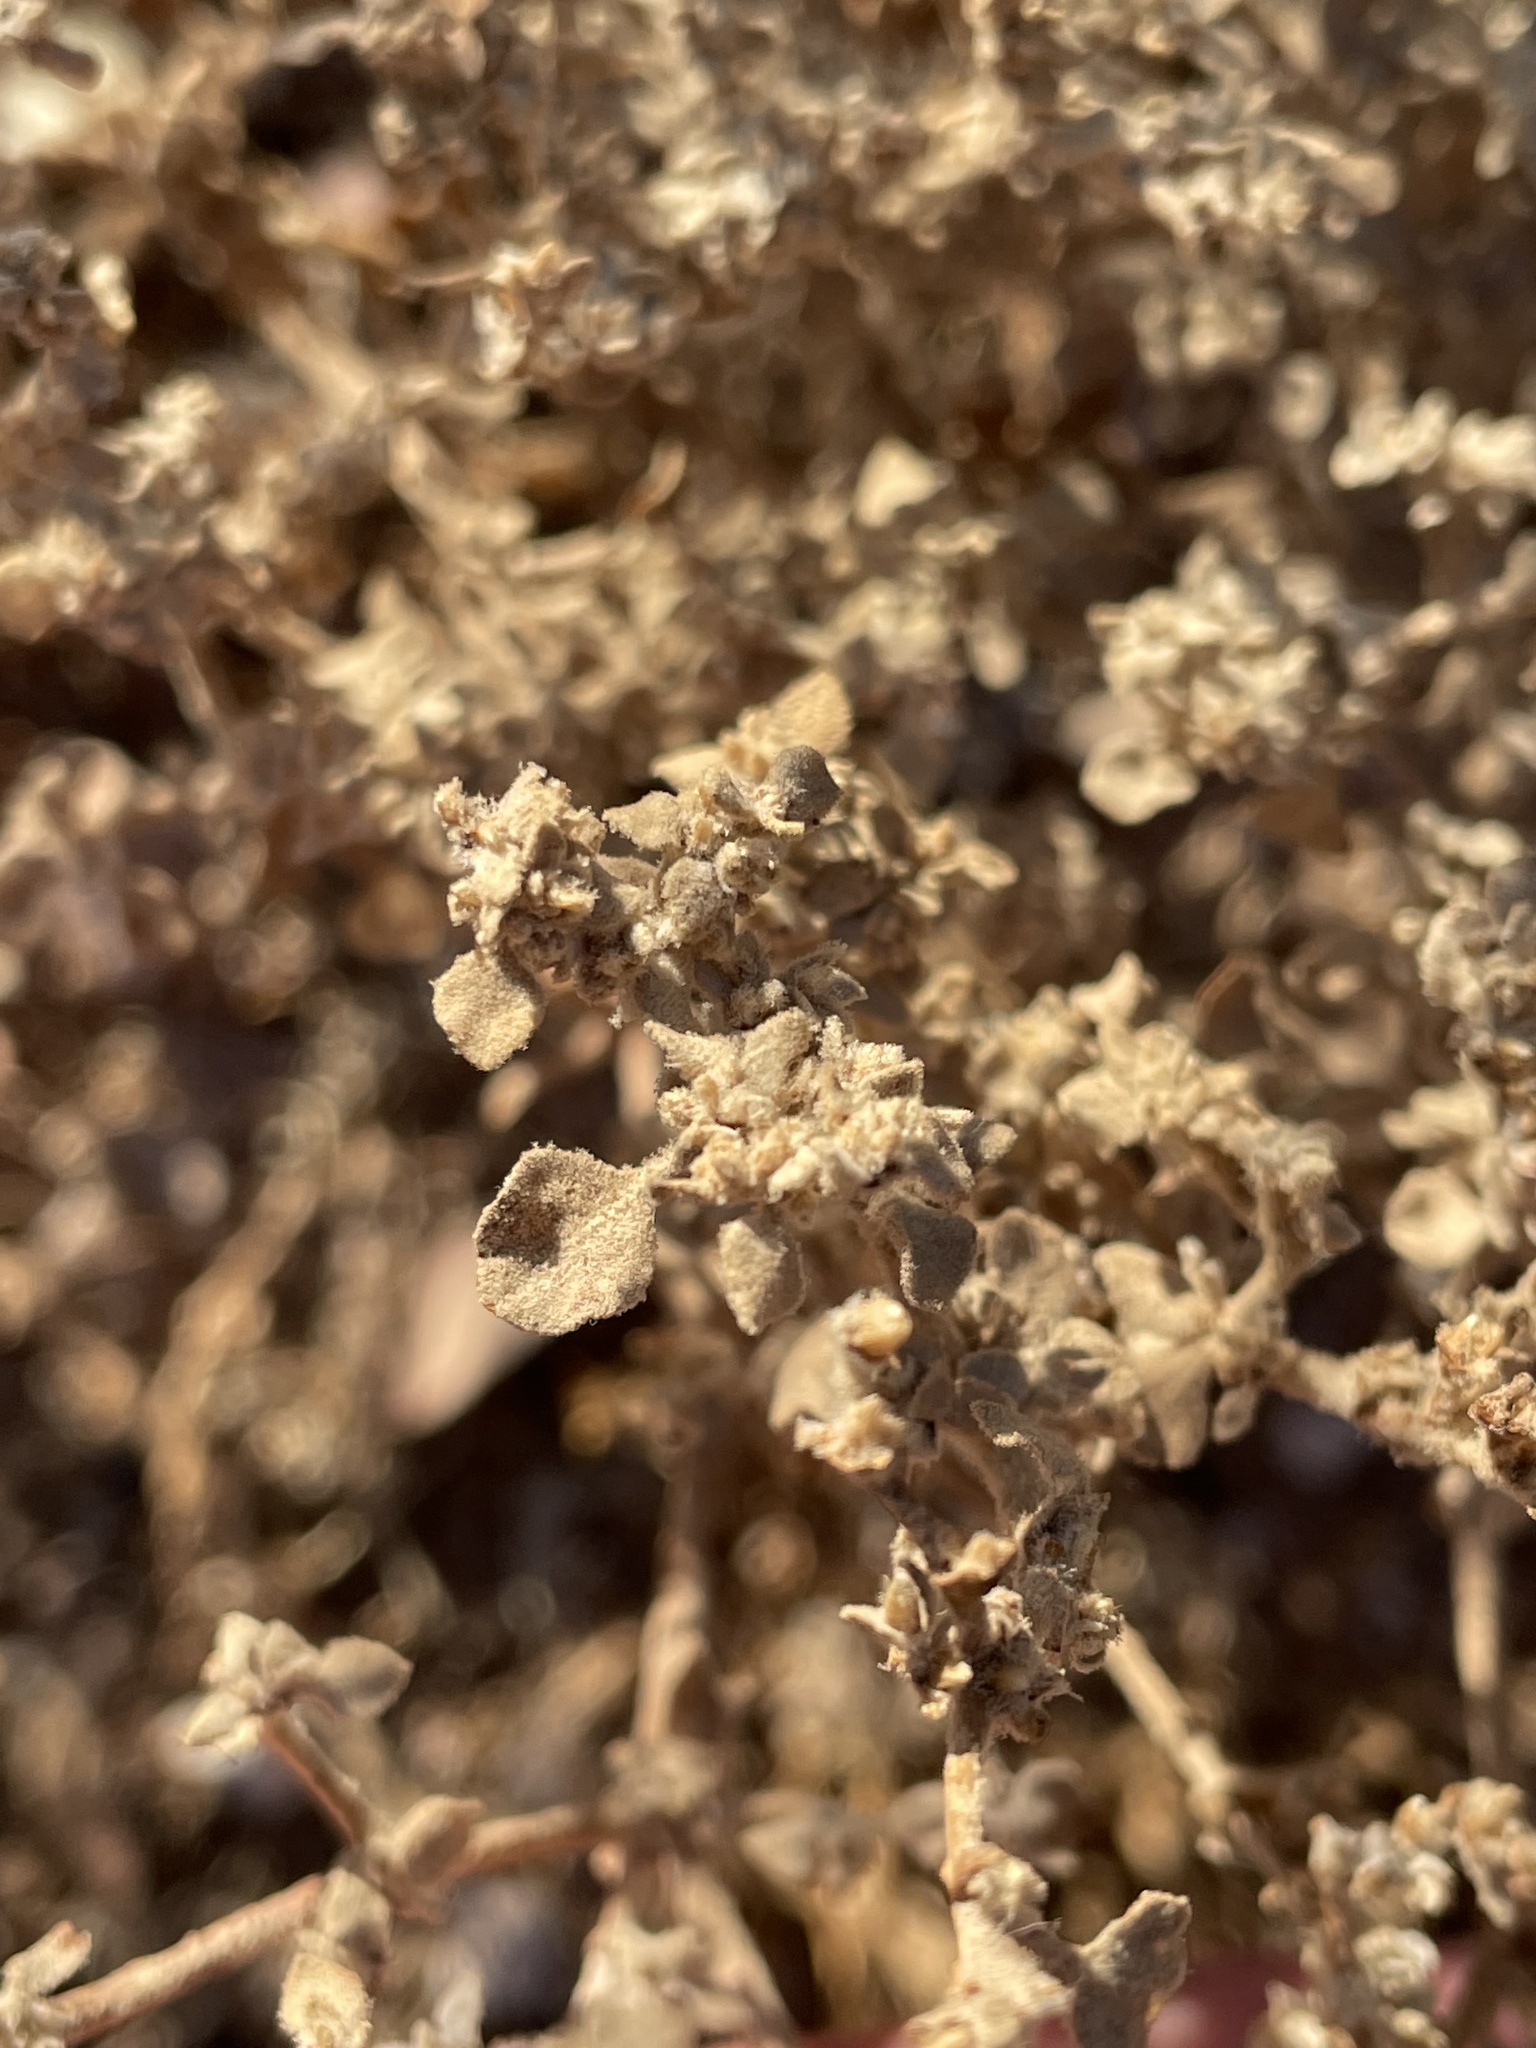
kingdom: Plantae
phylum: Tracheophyta
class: Magnoliopsida
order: Caryophyllales
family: Amaranthaceae
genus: Tidestromia
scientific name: Tidestromia lanuginosa
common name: Woolly tidestromia
